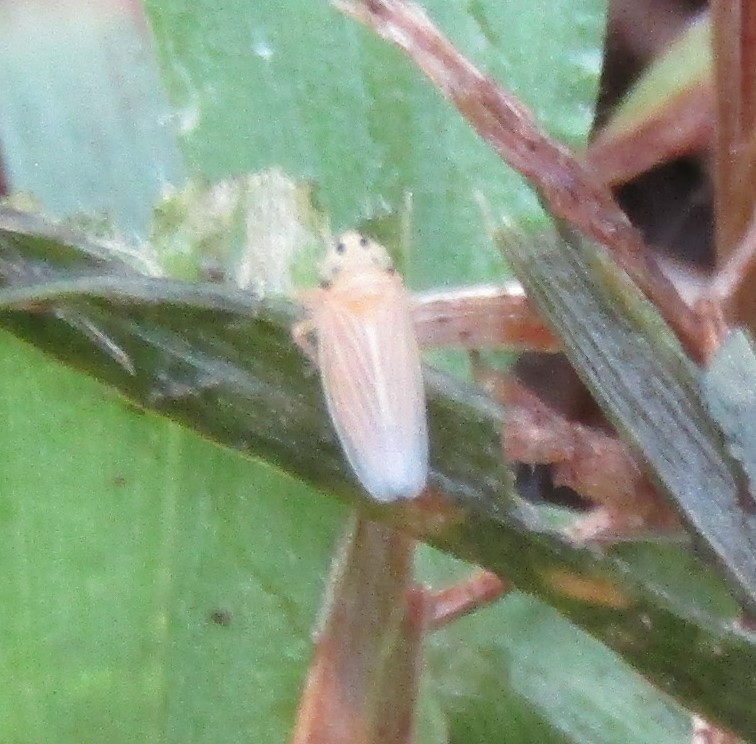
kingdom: Animalia
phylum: Arthropoda
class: Insecta
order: Hemiptera
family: Cicadellidae
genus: Graminella
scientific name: Graminella villicus
